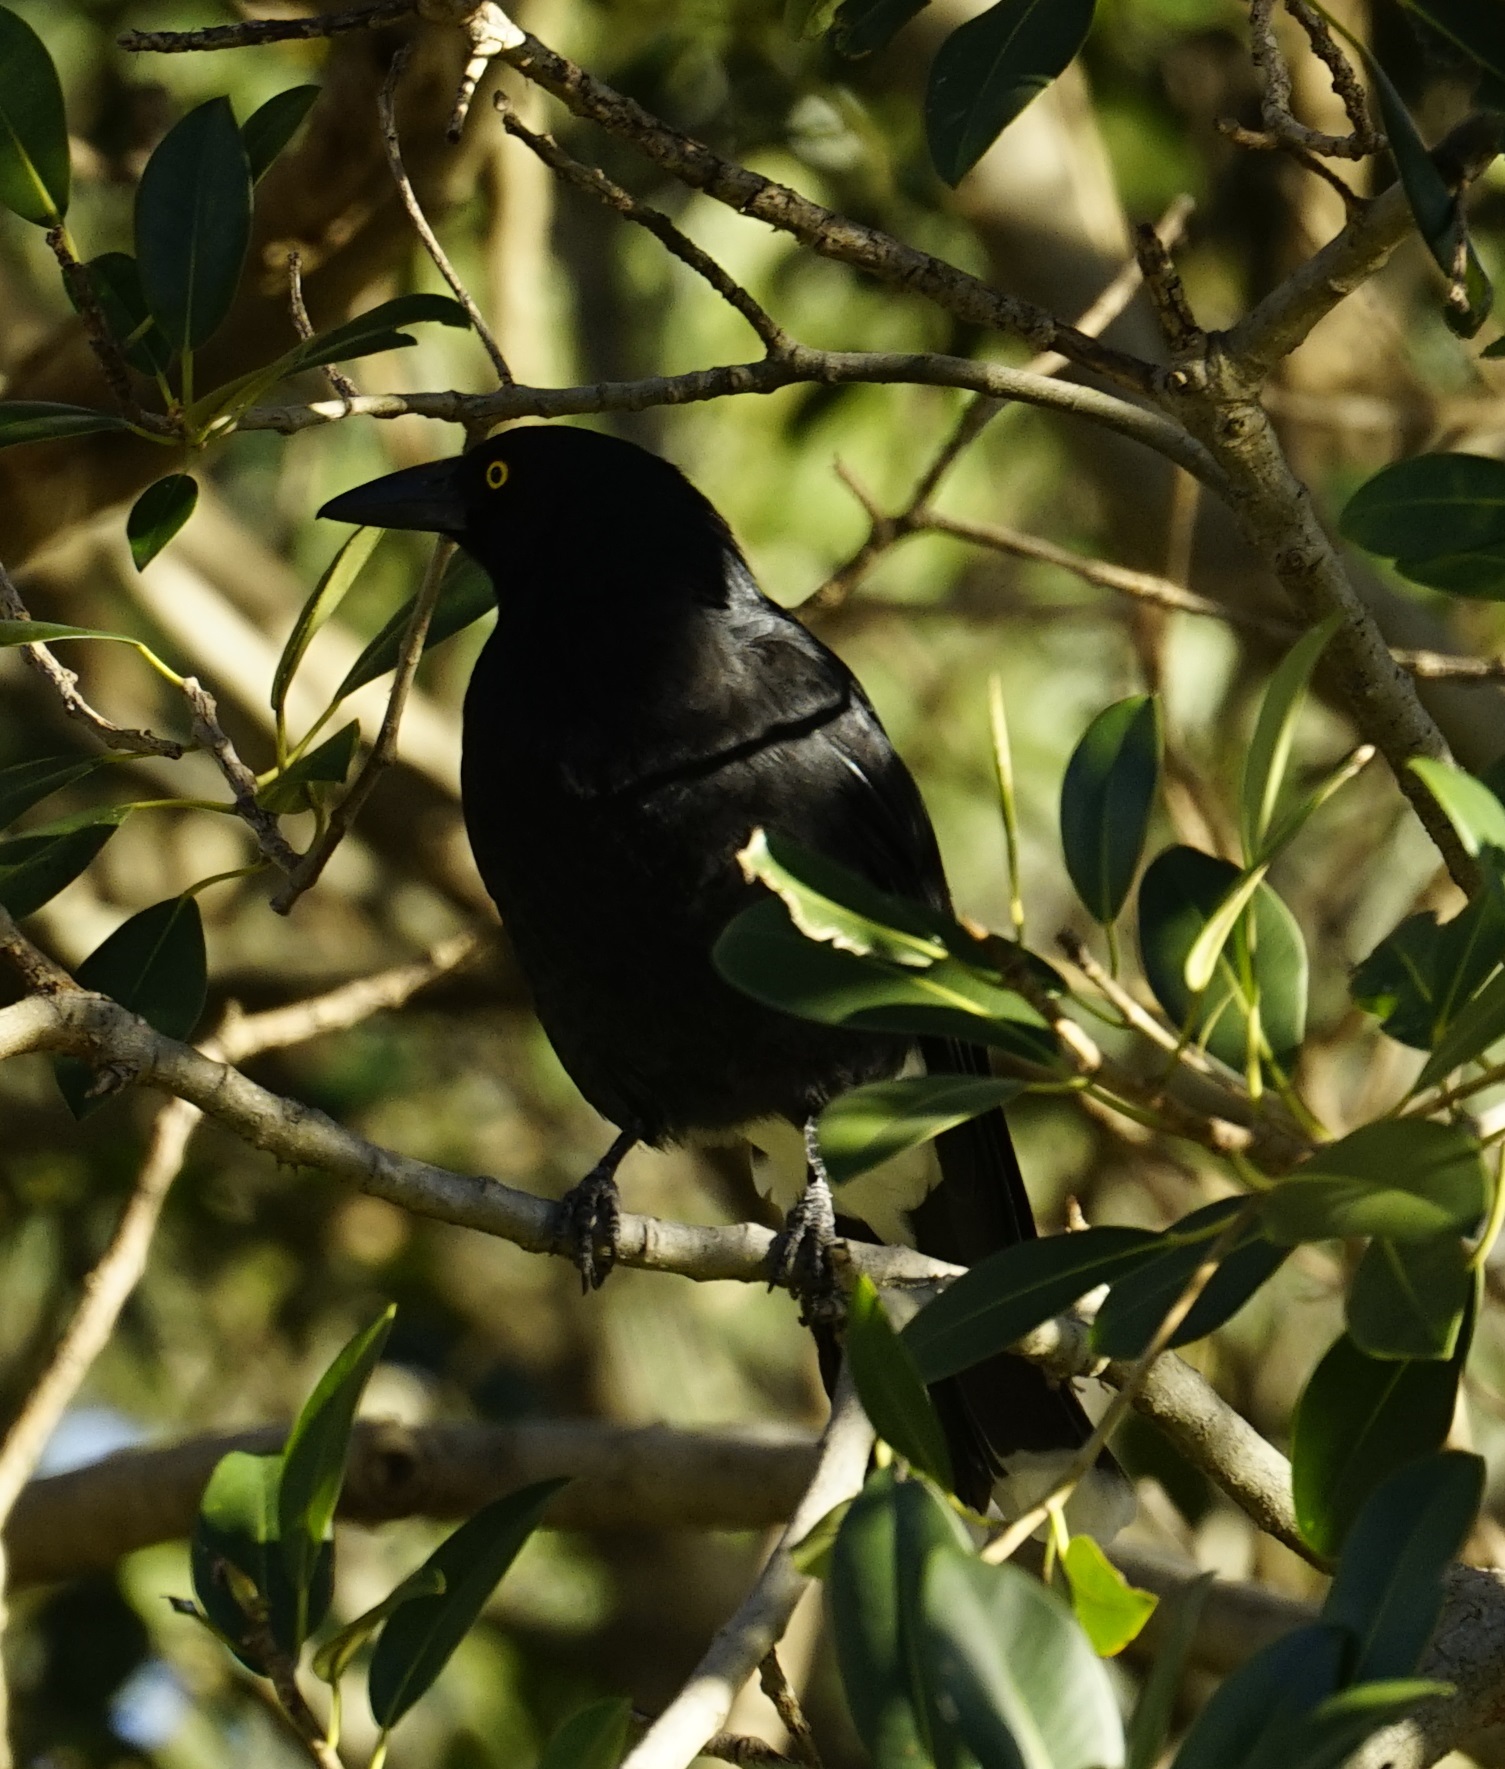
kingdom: Animalia
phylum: Chordata
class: Aves
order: Passeriformes
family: Cracticidae
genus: Strepera
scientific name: Strepera graculina
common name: Pied currawong
